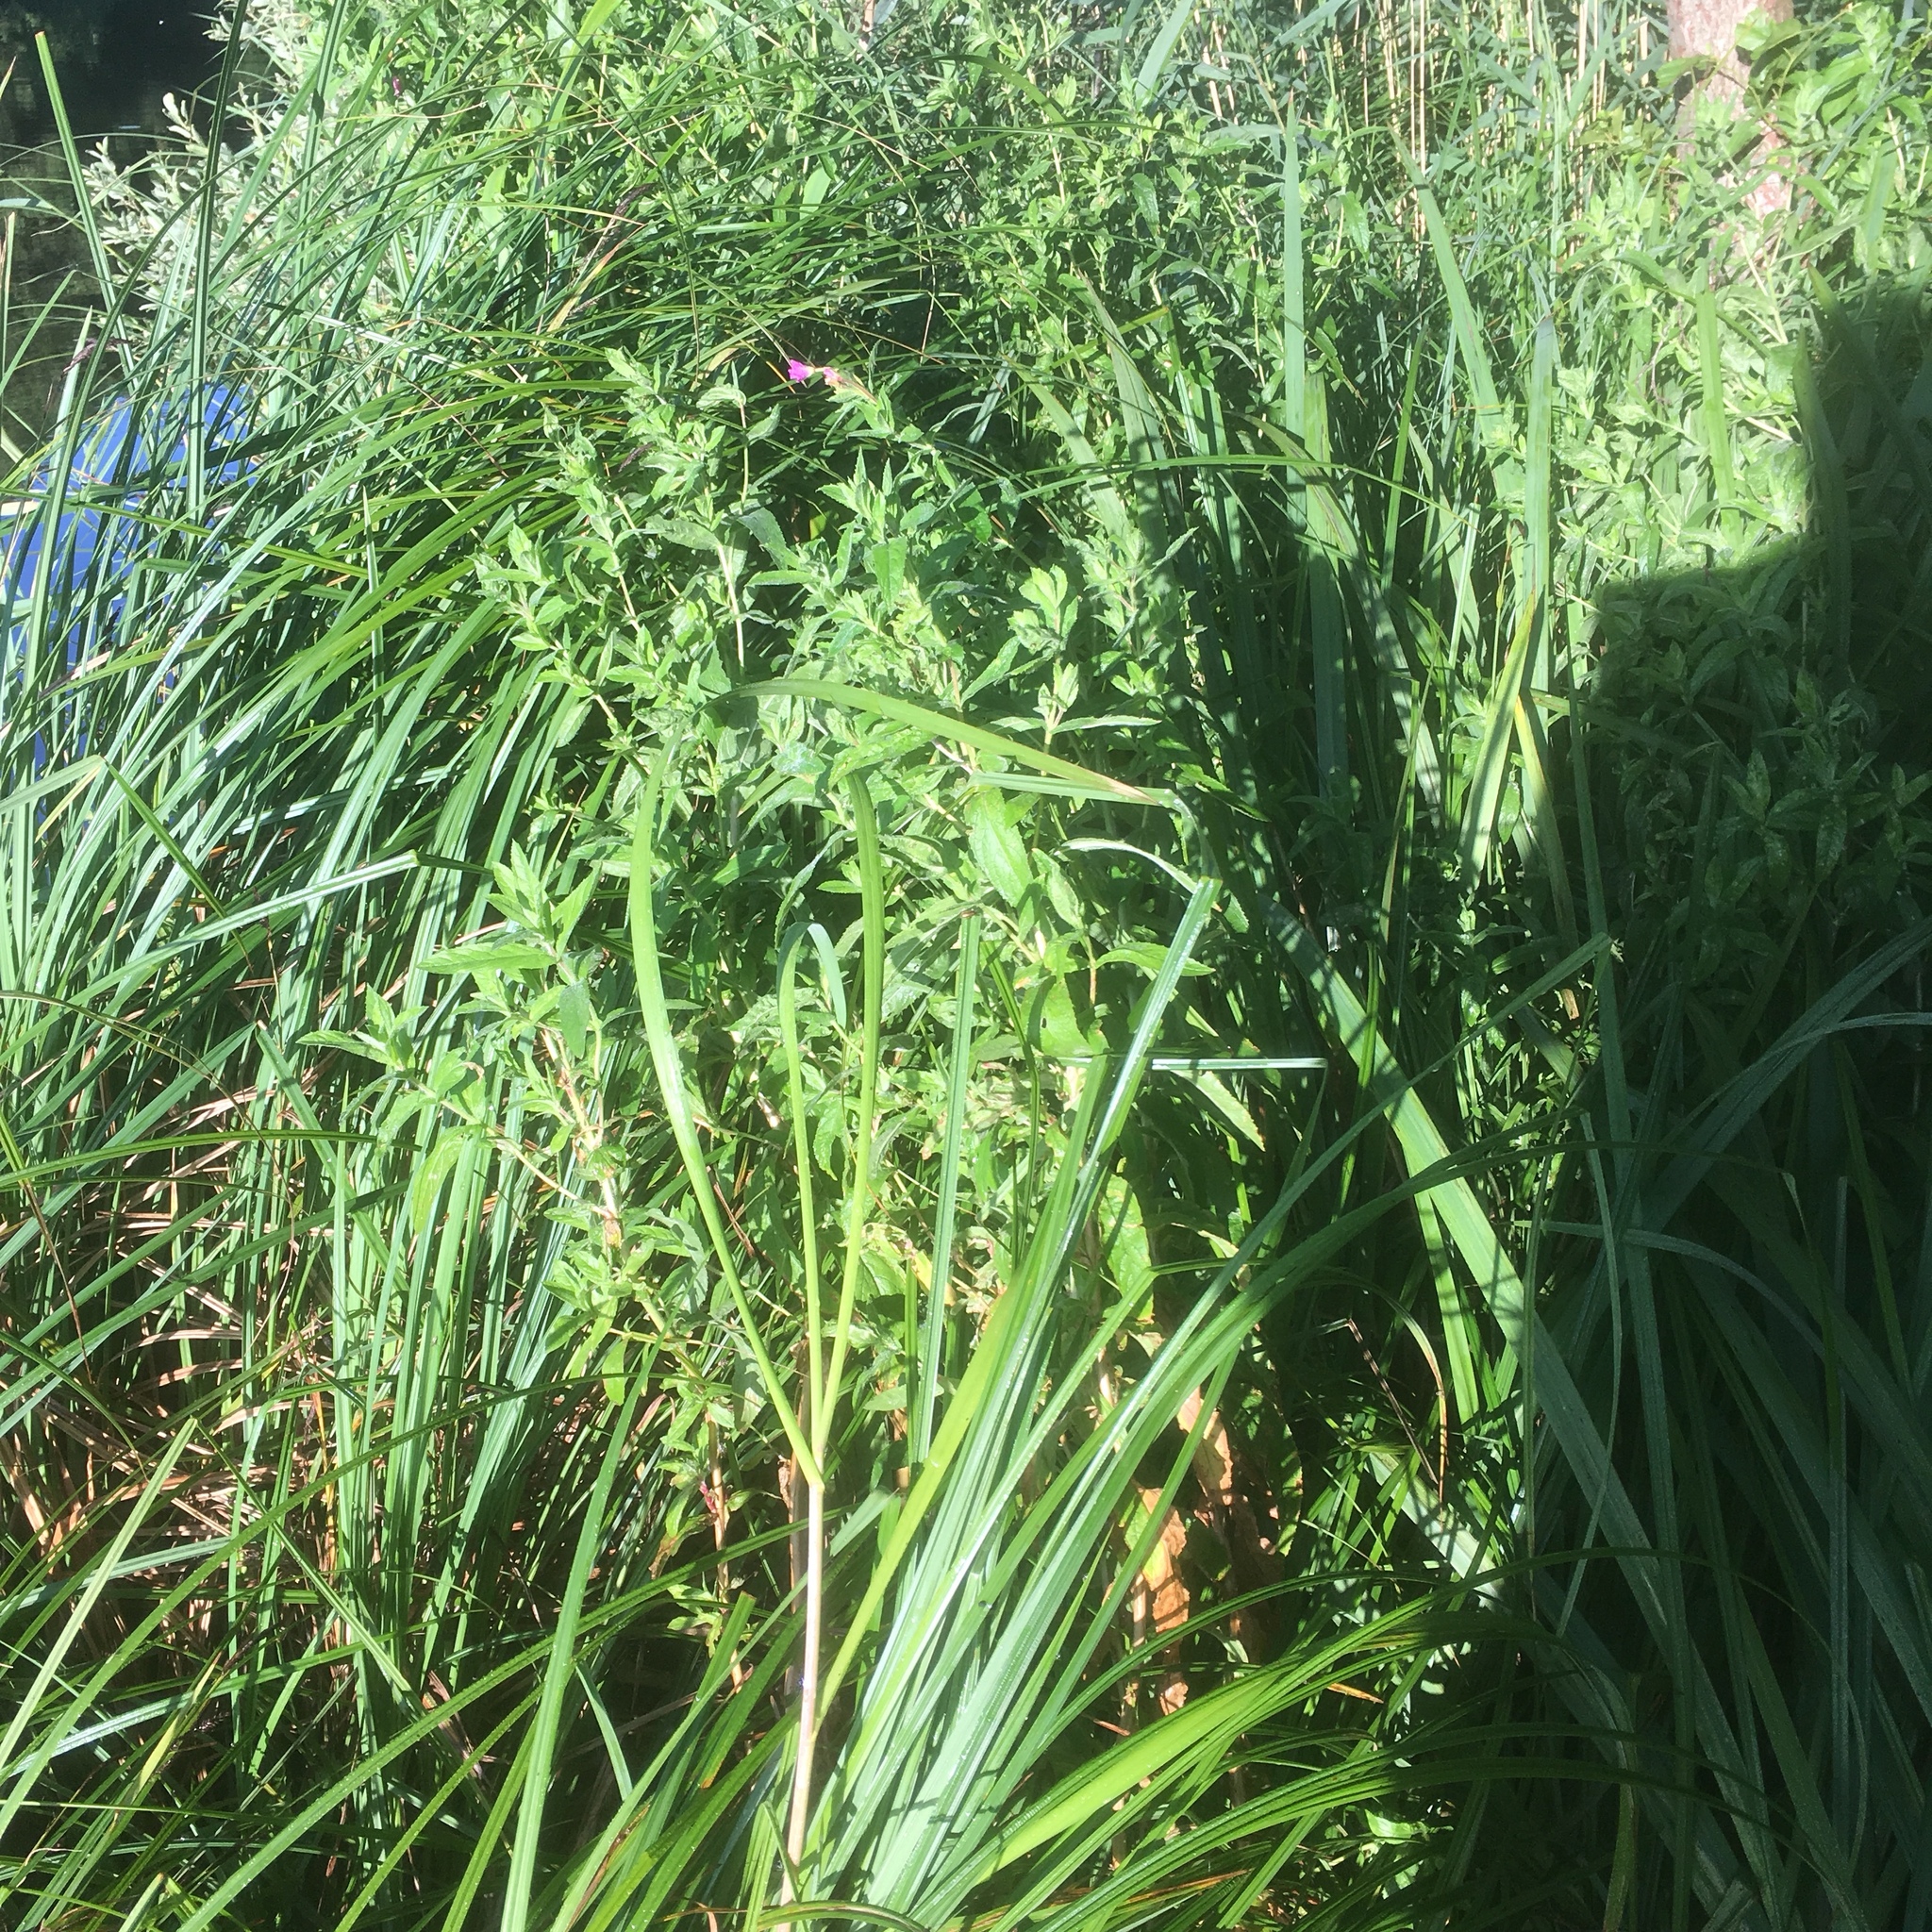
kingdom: Plantae
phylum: Tracheophyta
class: Magnoliopsida
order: Myrtales
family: Onagraceae
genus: Epilobium
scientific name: Epilobium hirsutum
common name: Great willowherb
